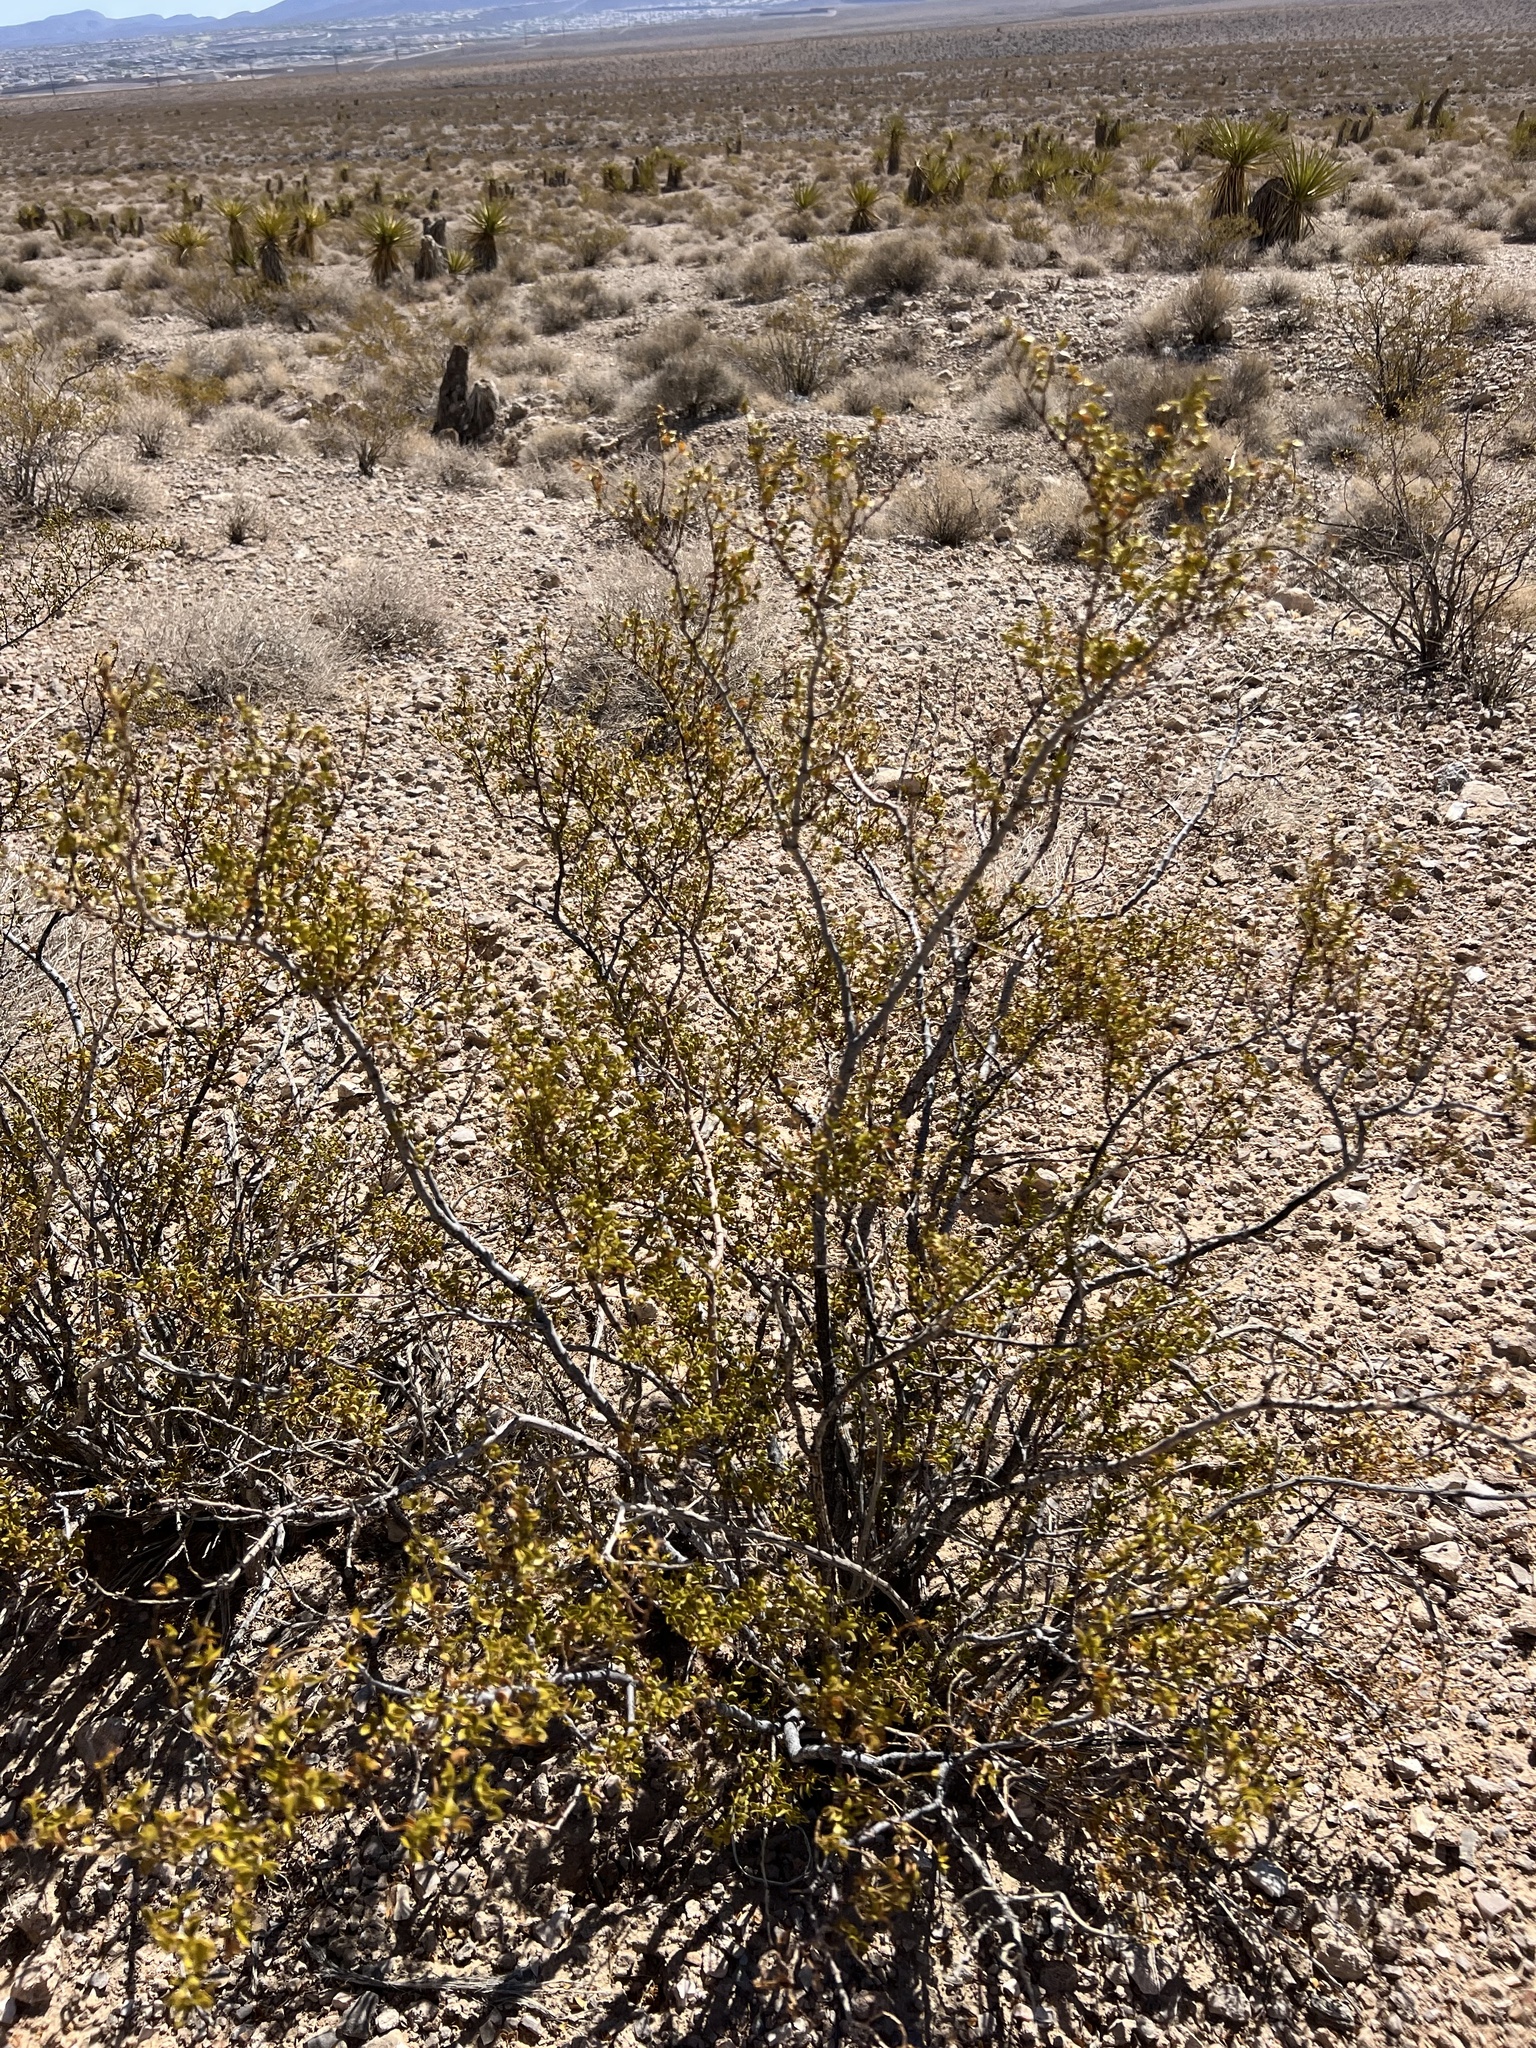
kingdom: Plantae
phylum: Tracheophyta
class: Magnoliopsida
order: Zygophyllales
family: Zygophyllaceae
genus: Larrea
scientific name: Larrea tridentata
